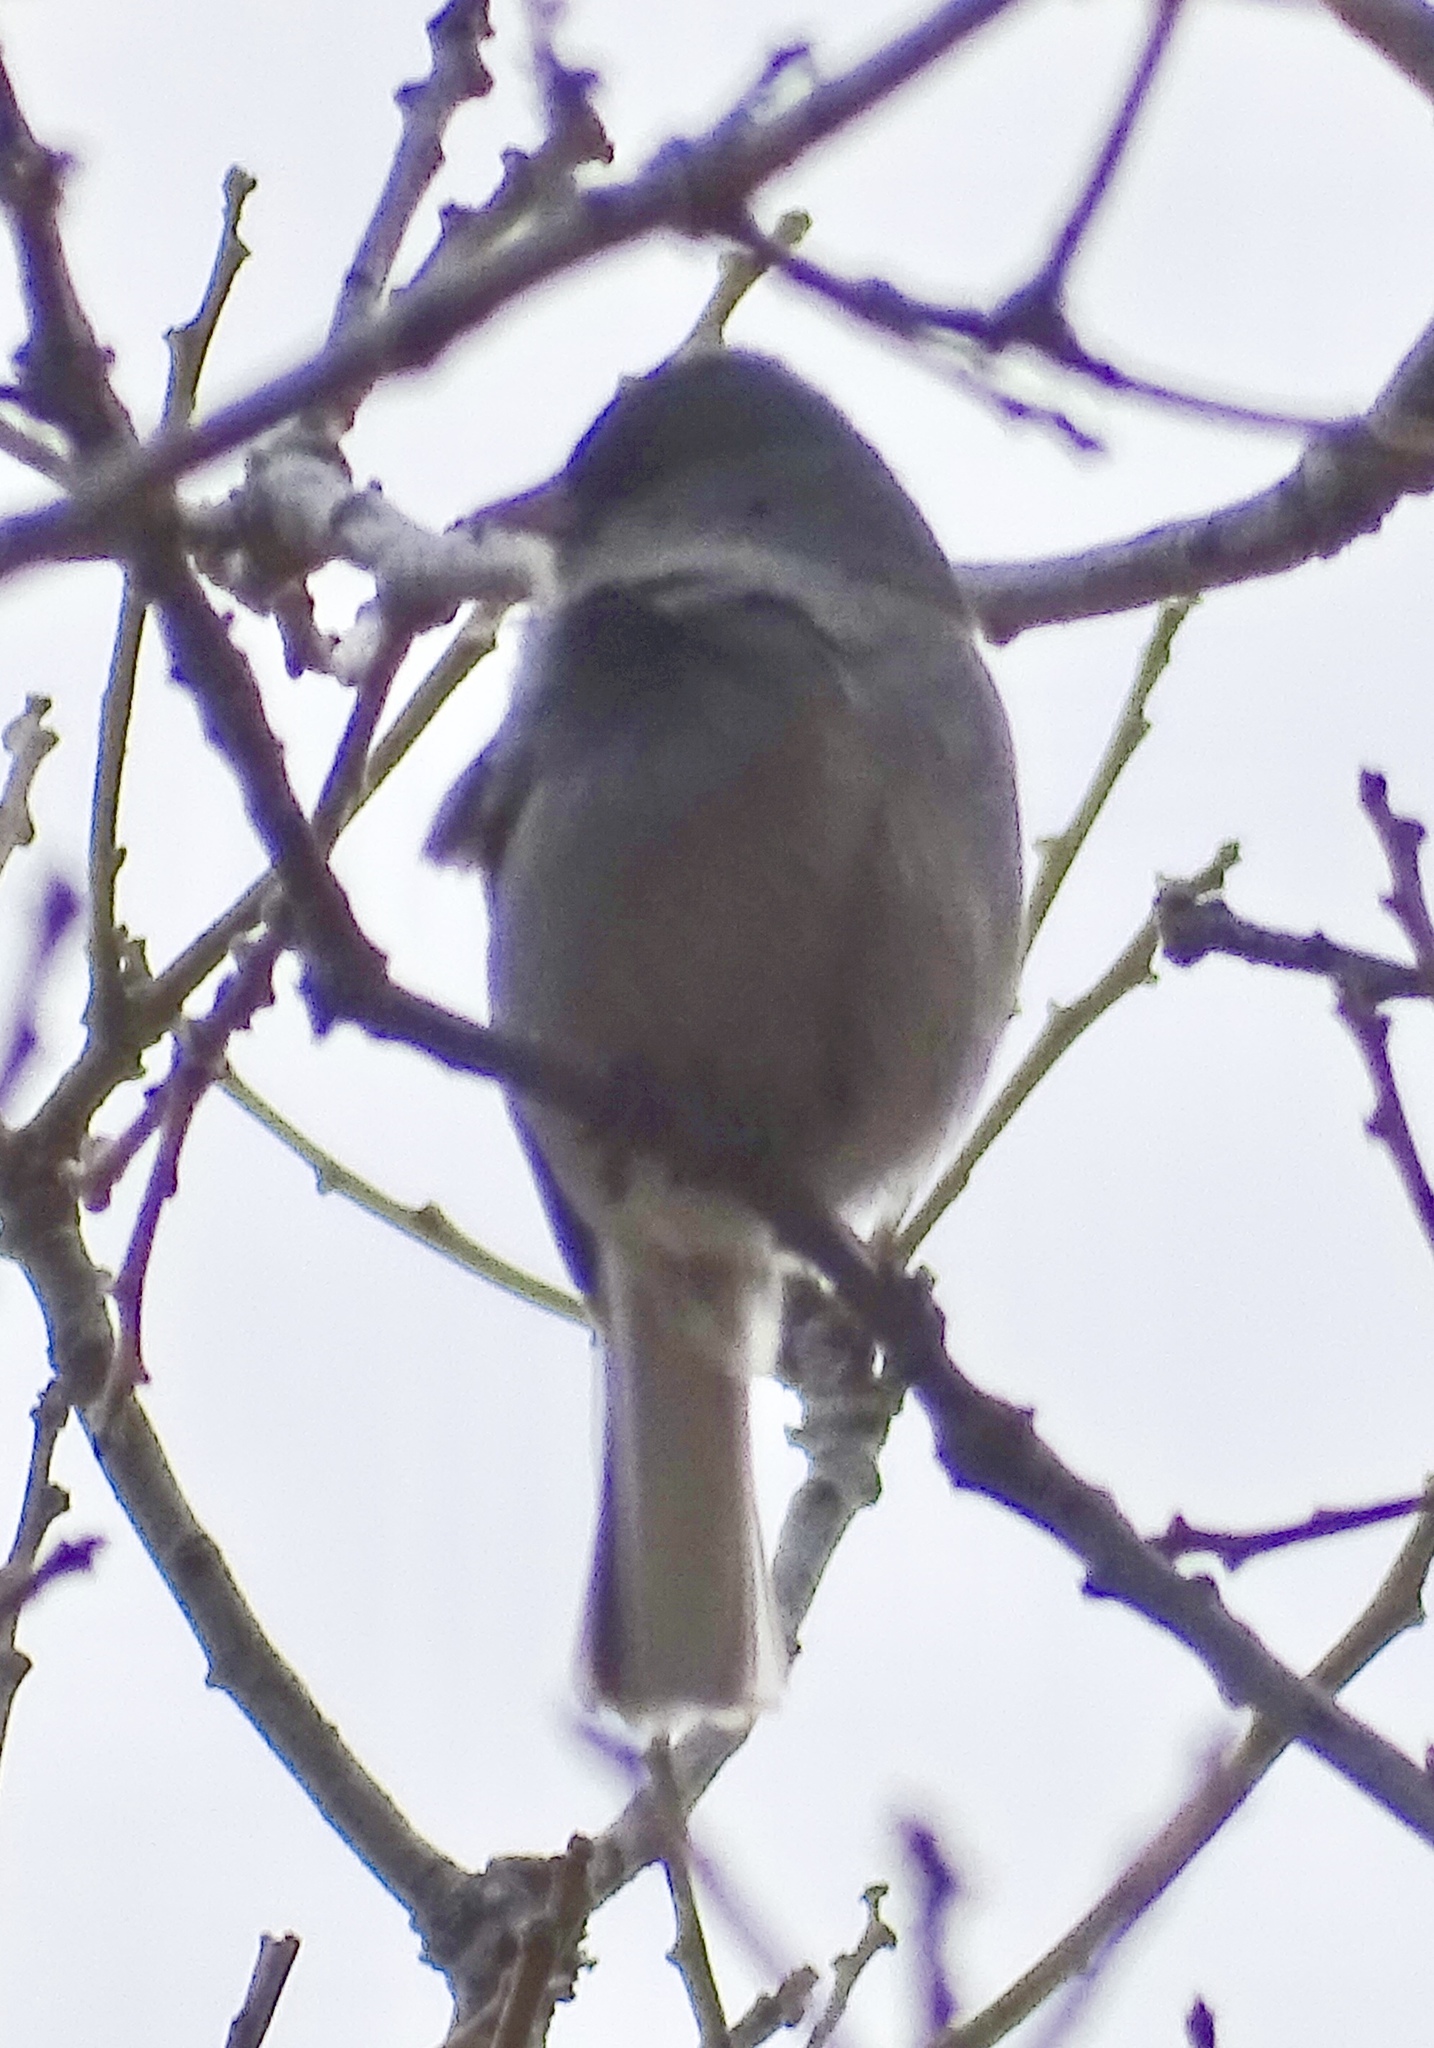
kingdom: Animalia
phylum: Chordata
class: Aves
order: Passeriformes
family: Passerellidae
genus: Junco
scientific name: Junco hyemalis
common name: Dark-eyed junco
